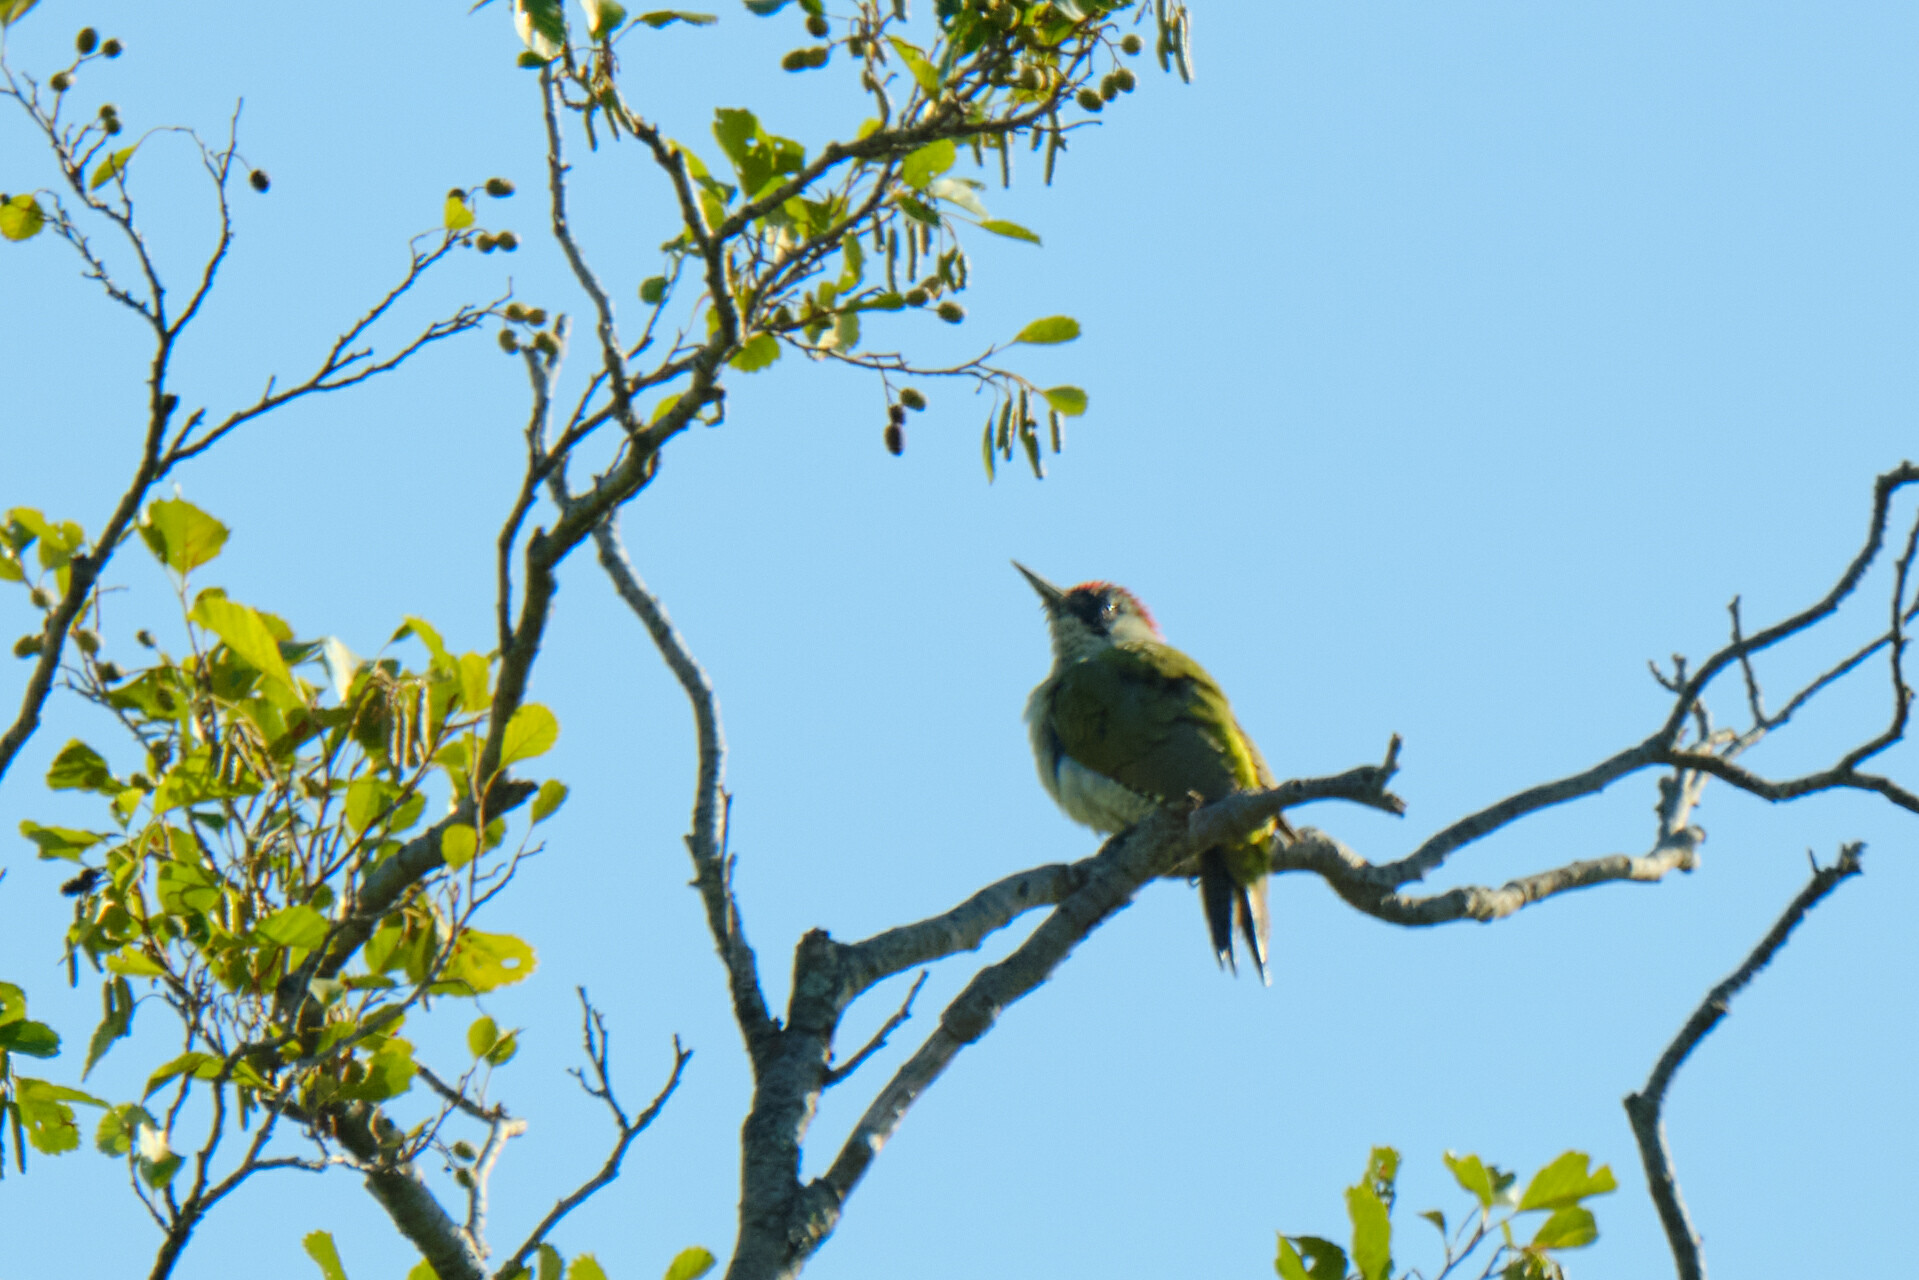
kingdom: Animalia
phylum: Chordata
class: Aves
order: Piciformes
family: Picidae
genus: Picus
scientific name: Picus viridis
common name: European green woodpecker
